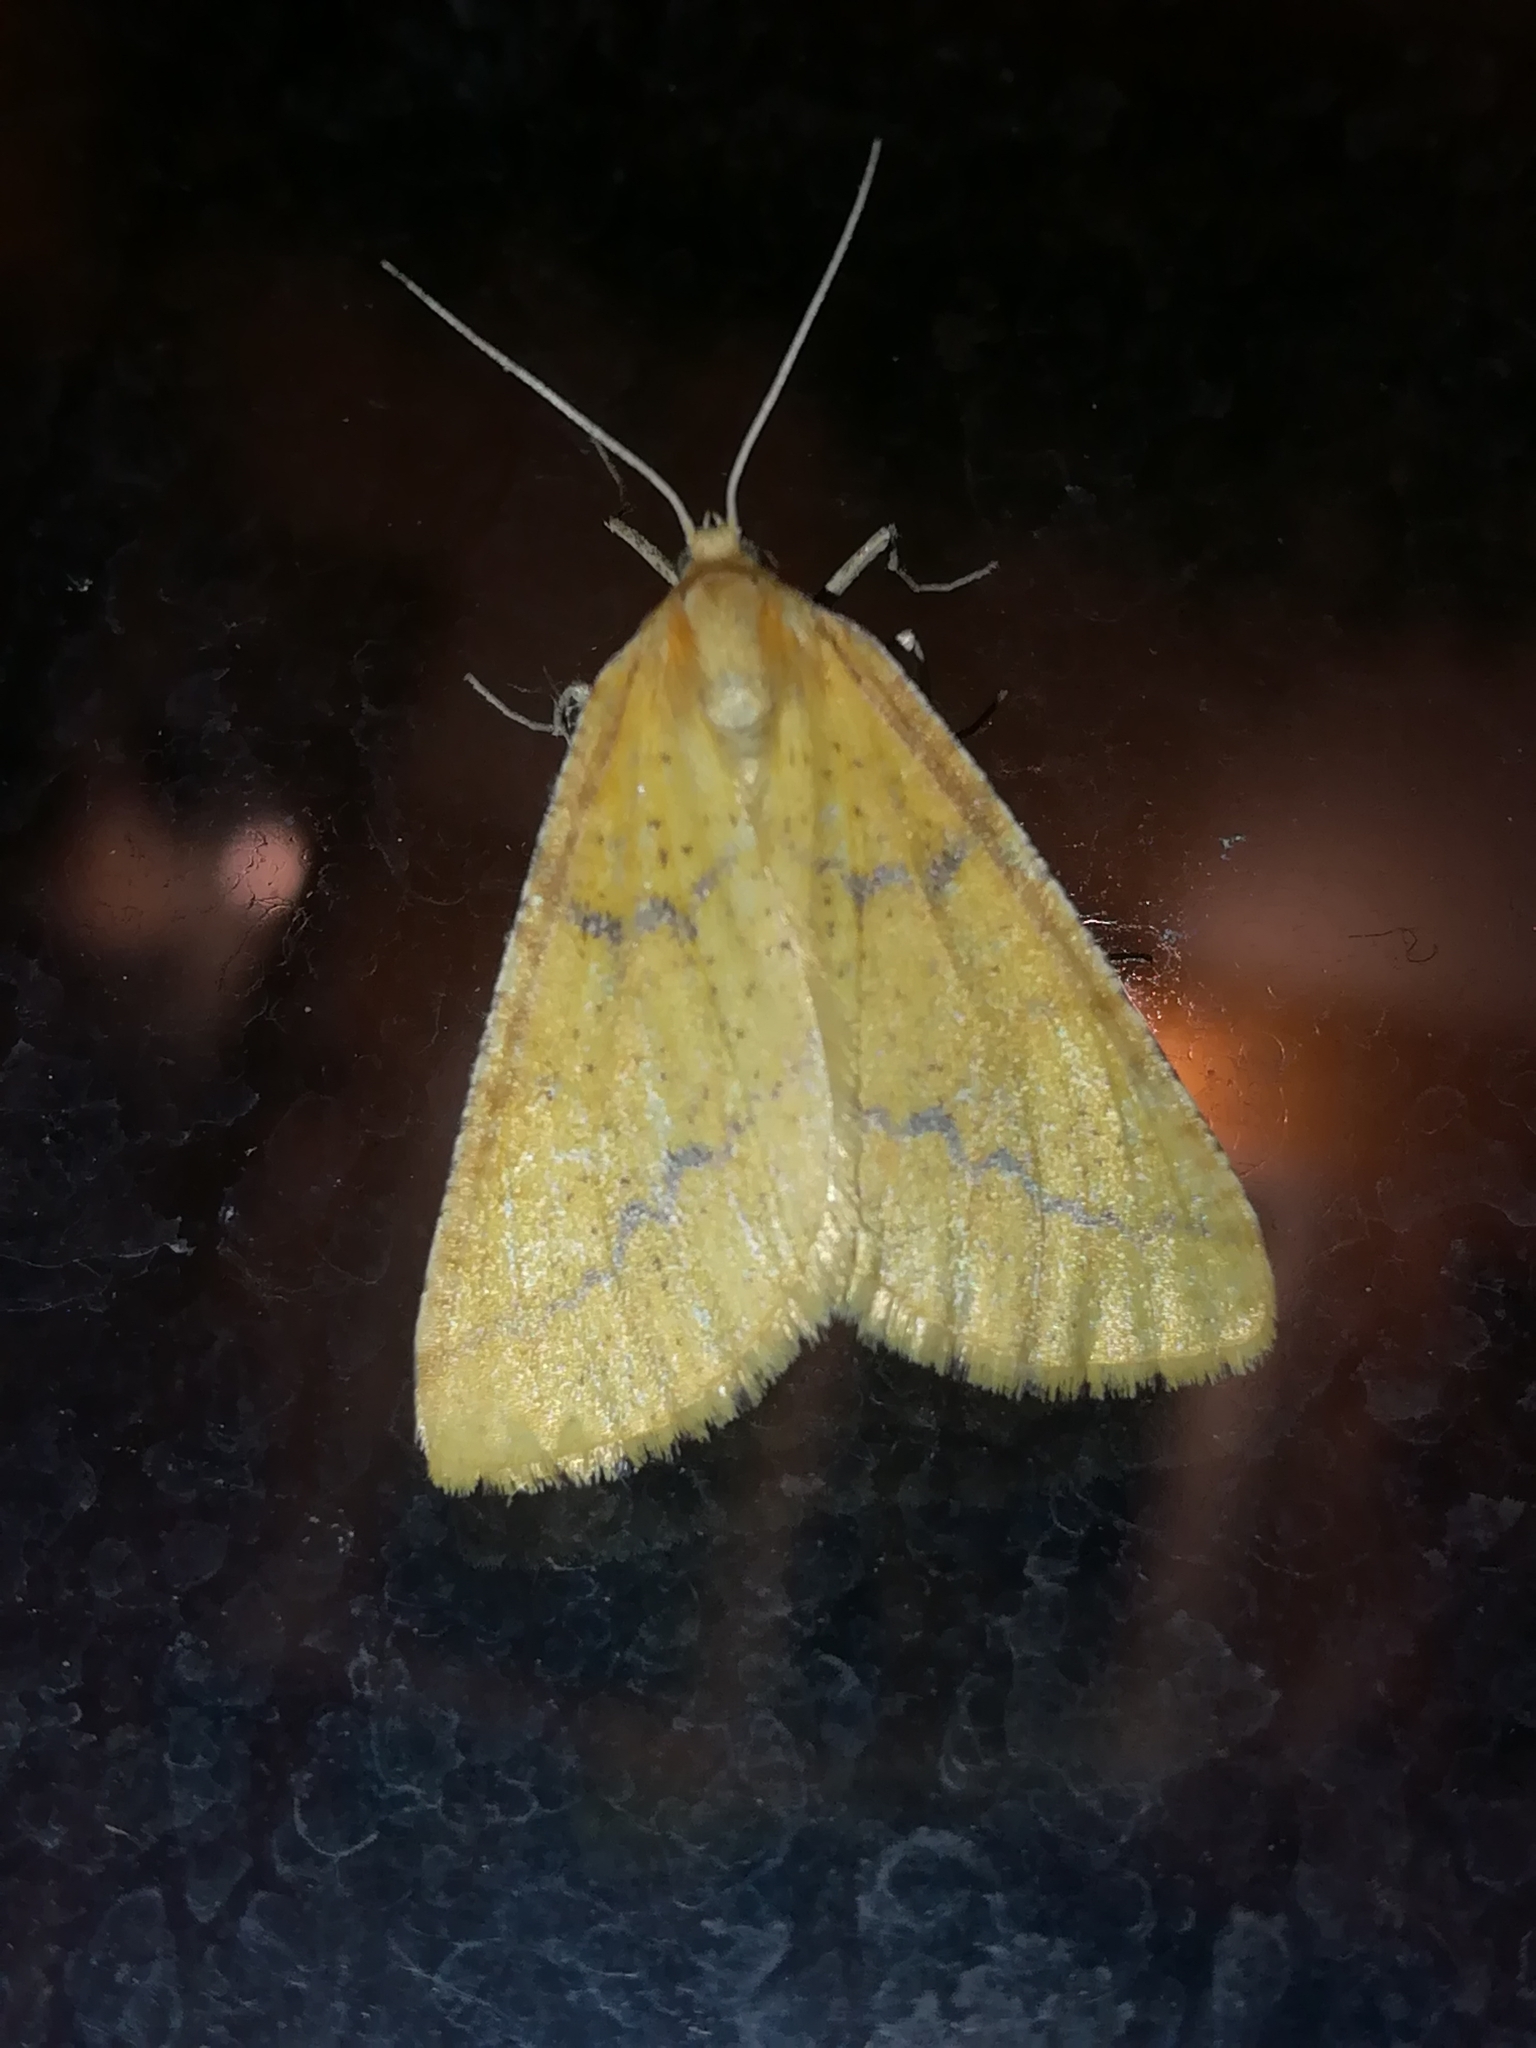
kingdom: Animalia
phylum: Arthropoda
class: Insecta
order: Lepidoptera
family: Geometridae
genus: Aspitates
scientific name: Aspitates ochrearia
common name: Yellow belle
